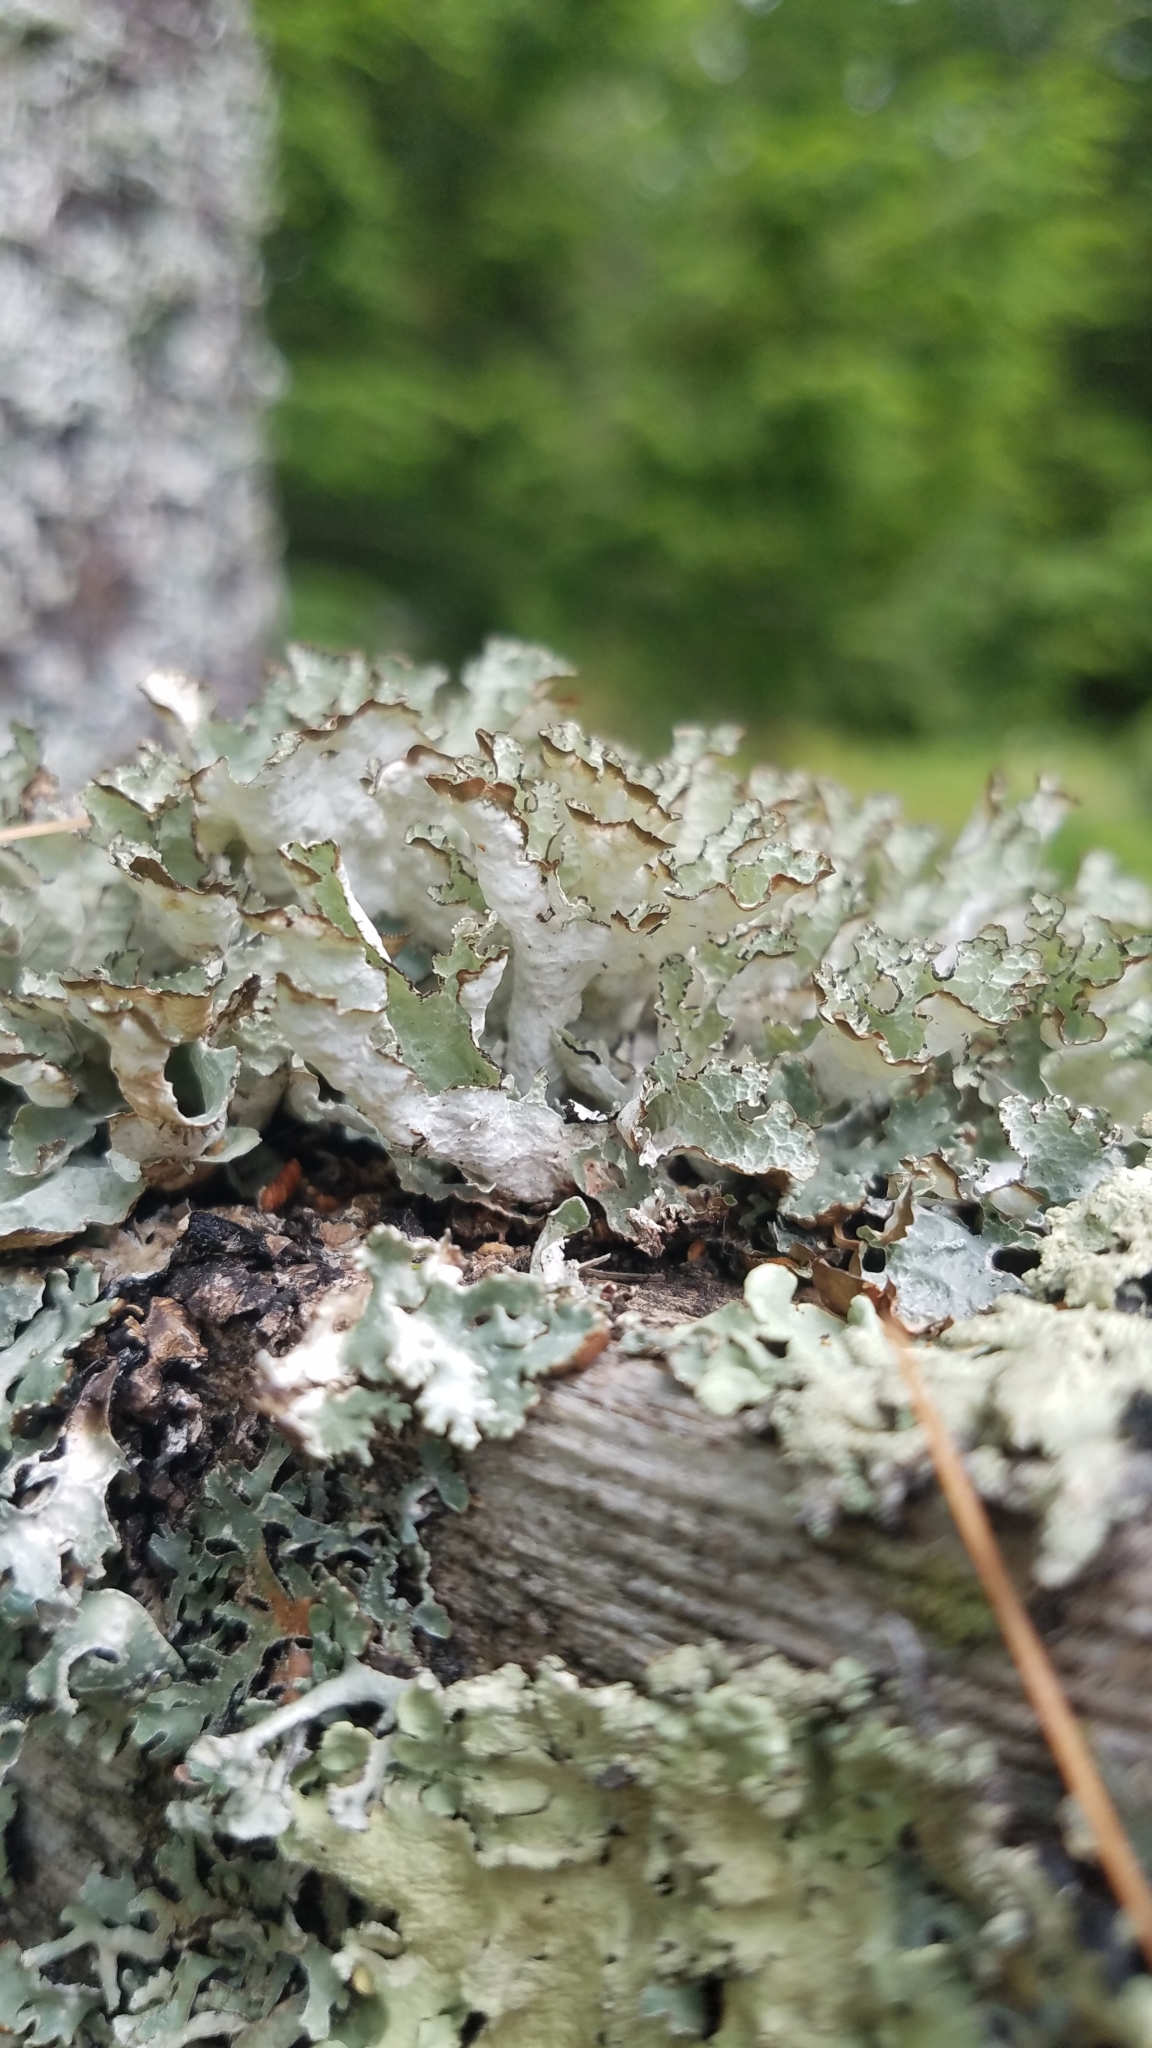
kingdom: Fungi
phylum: Ascomycota
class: Lecanoromycetes
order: Lecanorales
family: Parmeliaceae
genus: Platismatia
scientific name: Platismatia tuckermanii
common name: Crumpled rag lichen
